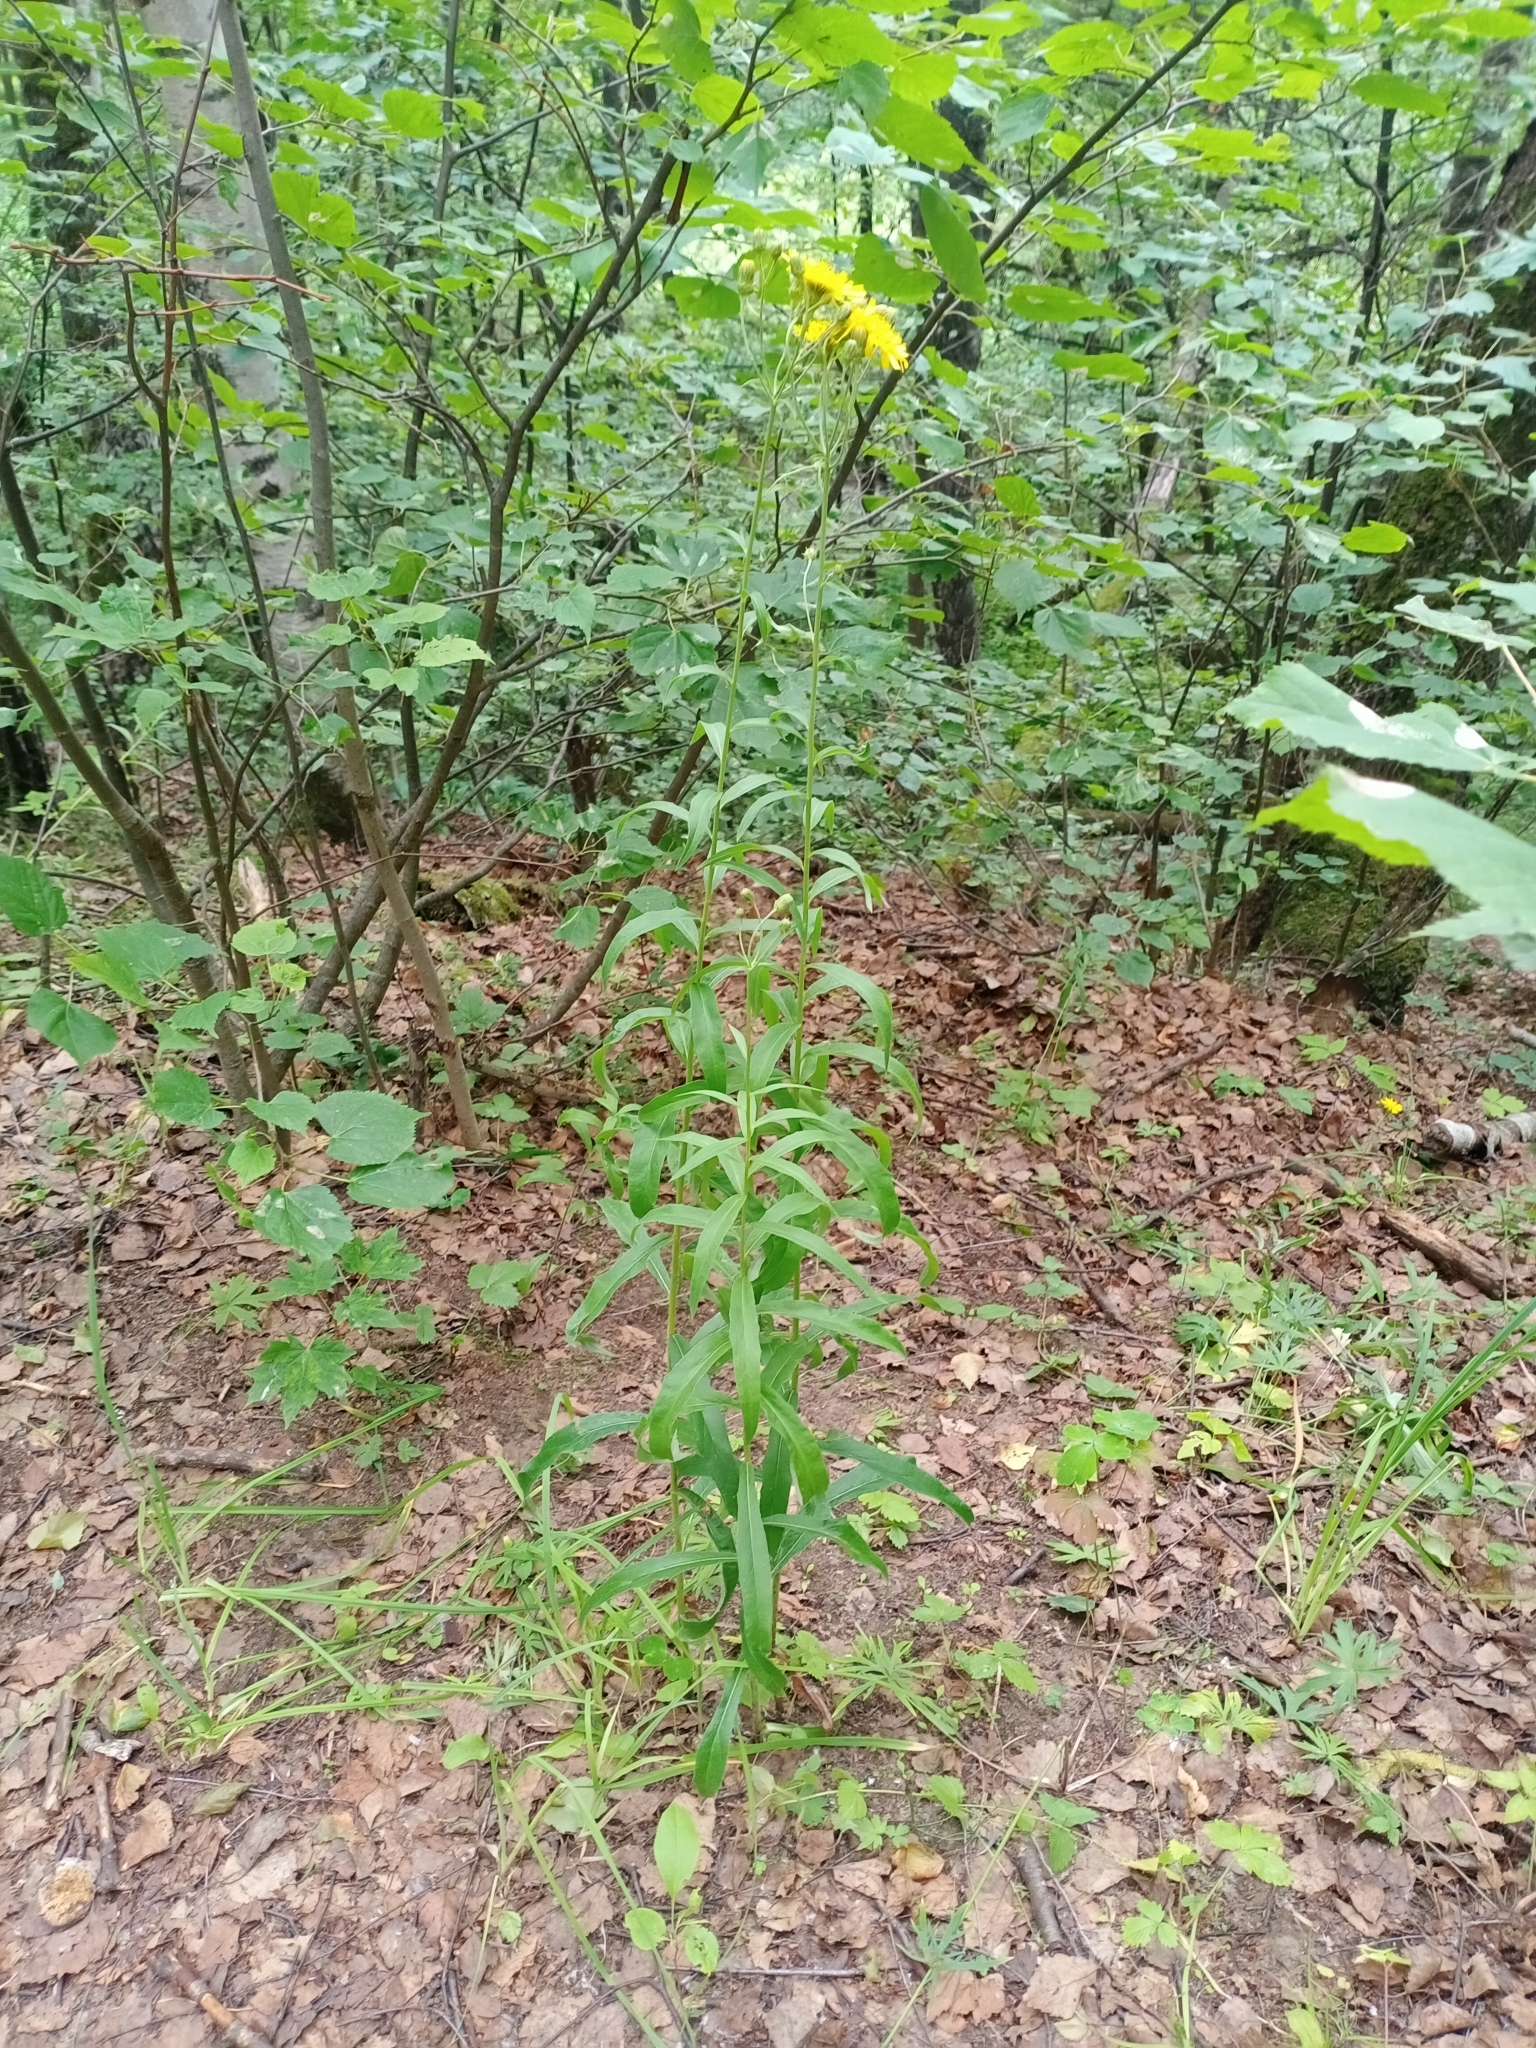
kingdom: Plantae
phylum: Tracheophyta
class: Magnoliopsida
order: Asterales
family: Asteraceae
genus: Hieracium
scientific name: Hieracium umbellatum
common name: Northern hawkweed
